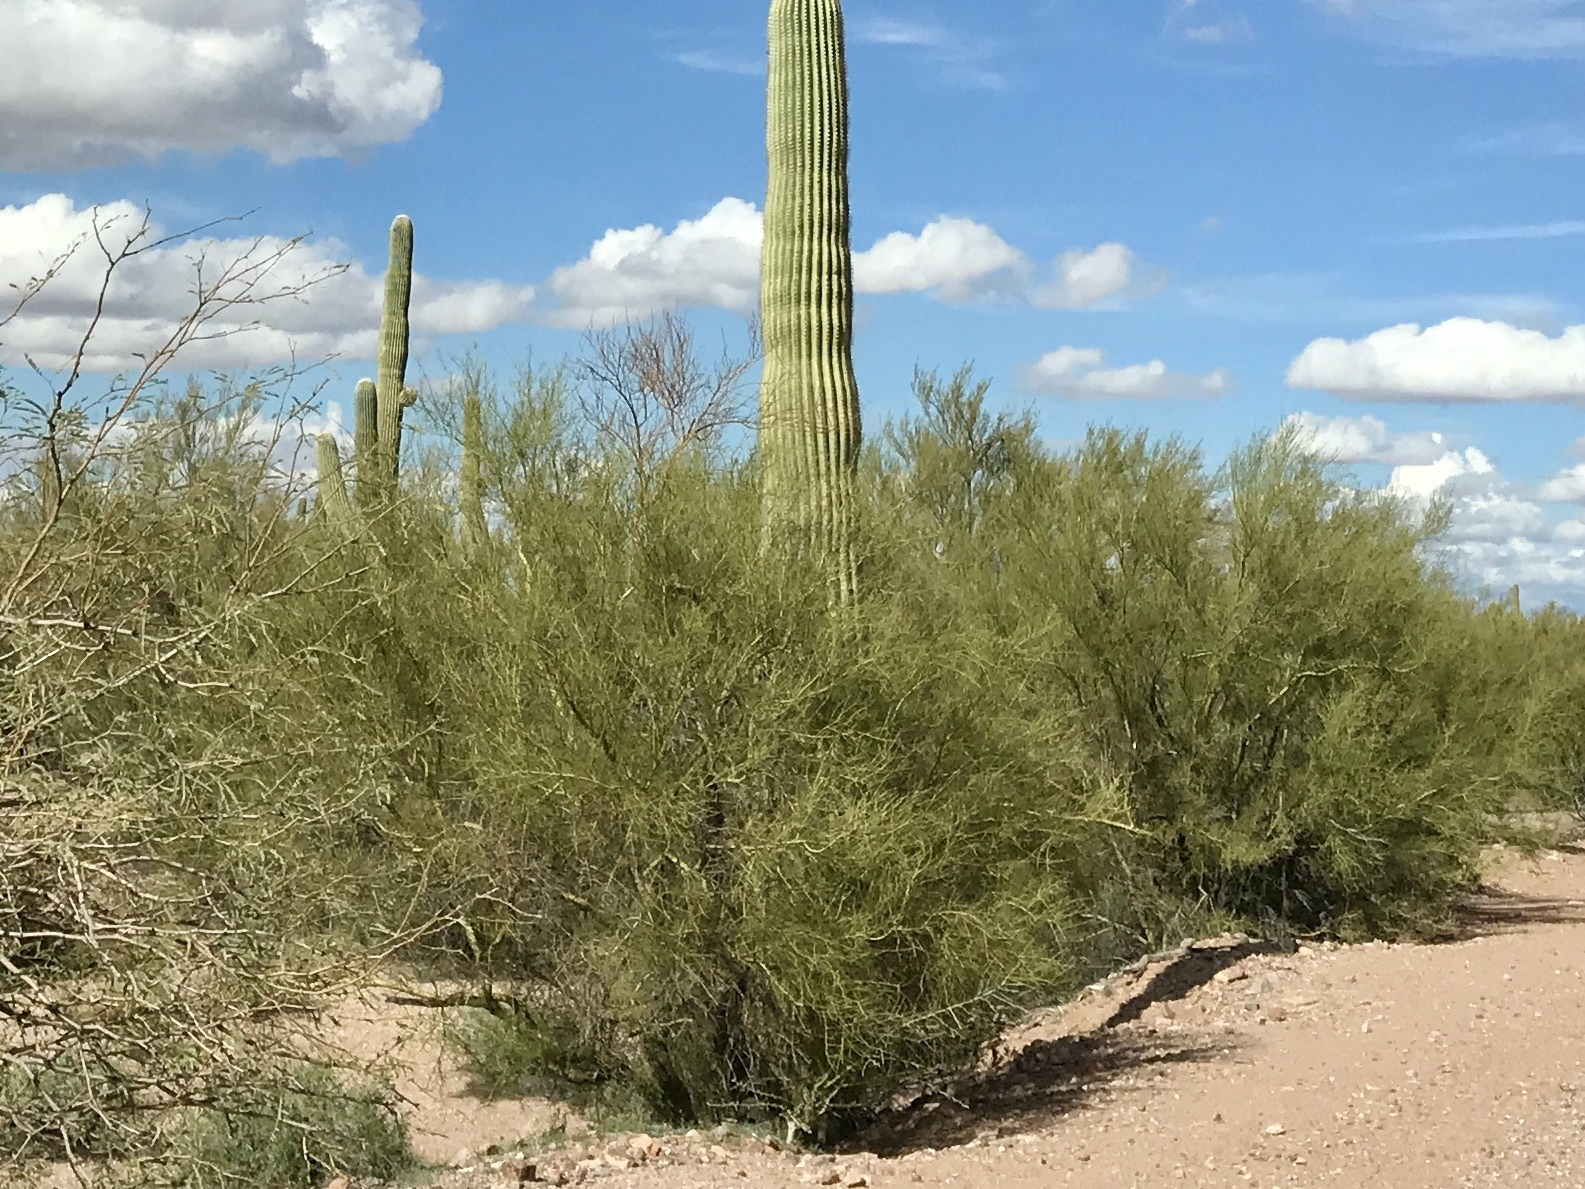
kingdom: Plantae
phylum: Tracheophyta
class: Magnoliopsida
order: Fabales
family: Fabaceae
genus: Parkinsonia
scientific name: Parkinsonia microphylla
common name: Yellow paloverde
